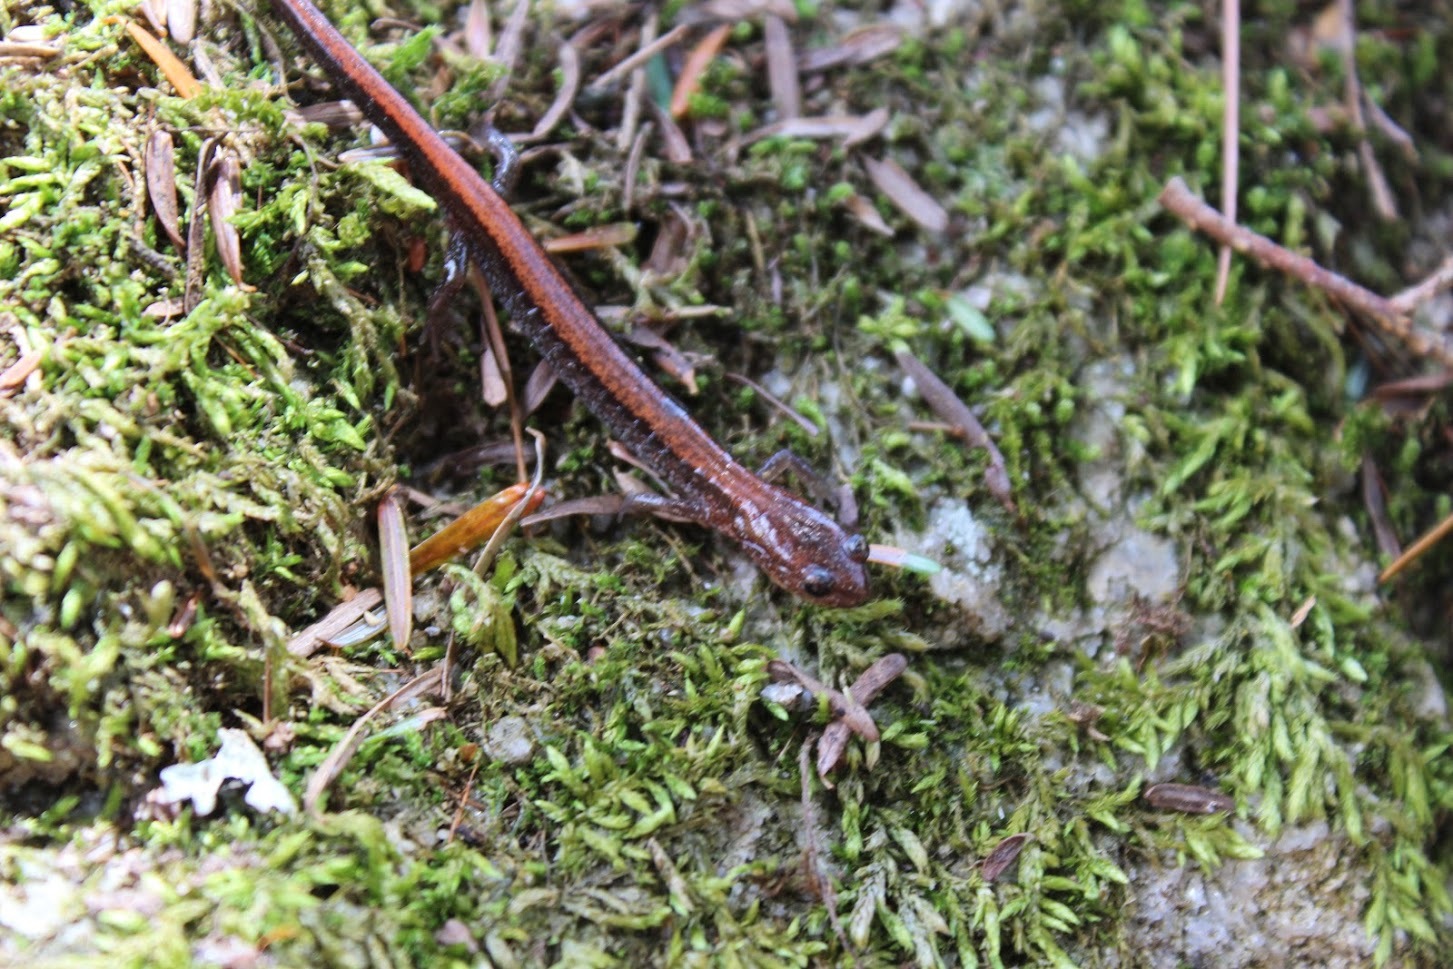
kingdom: Animalia
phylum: Chordata
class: Amphibia
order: Caudata
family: Plethodontidae
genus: Plethodon
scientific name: Plethodon cinereus
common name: Redback salamander
